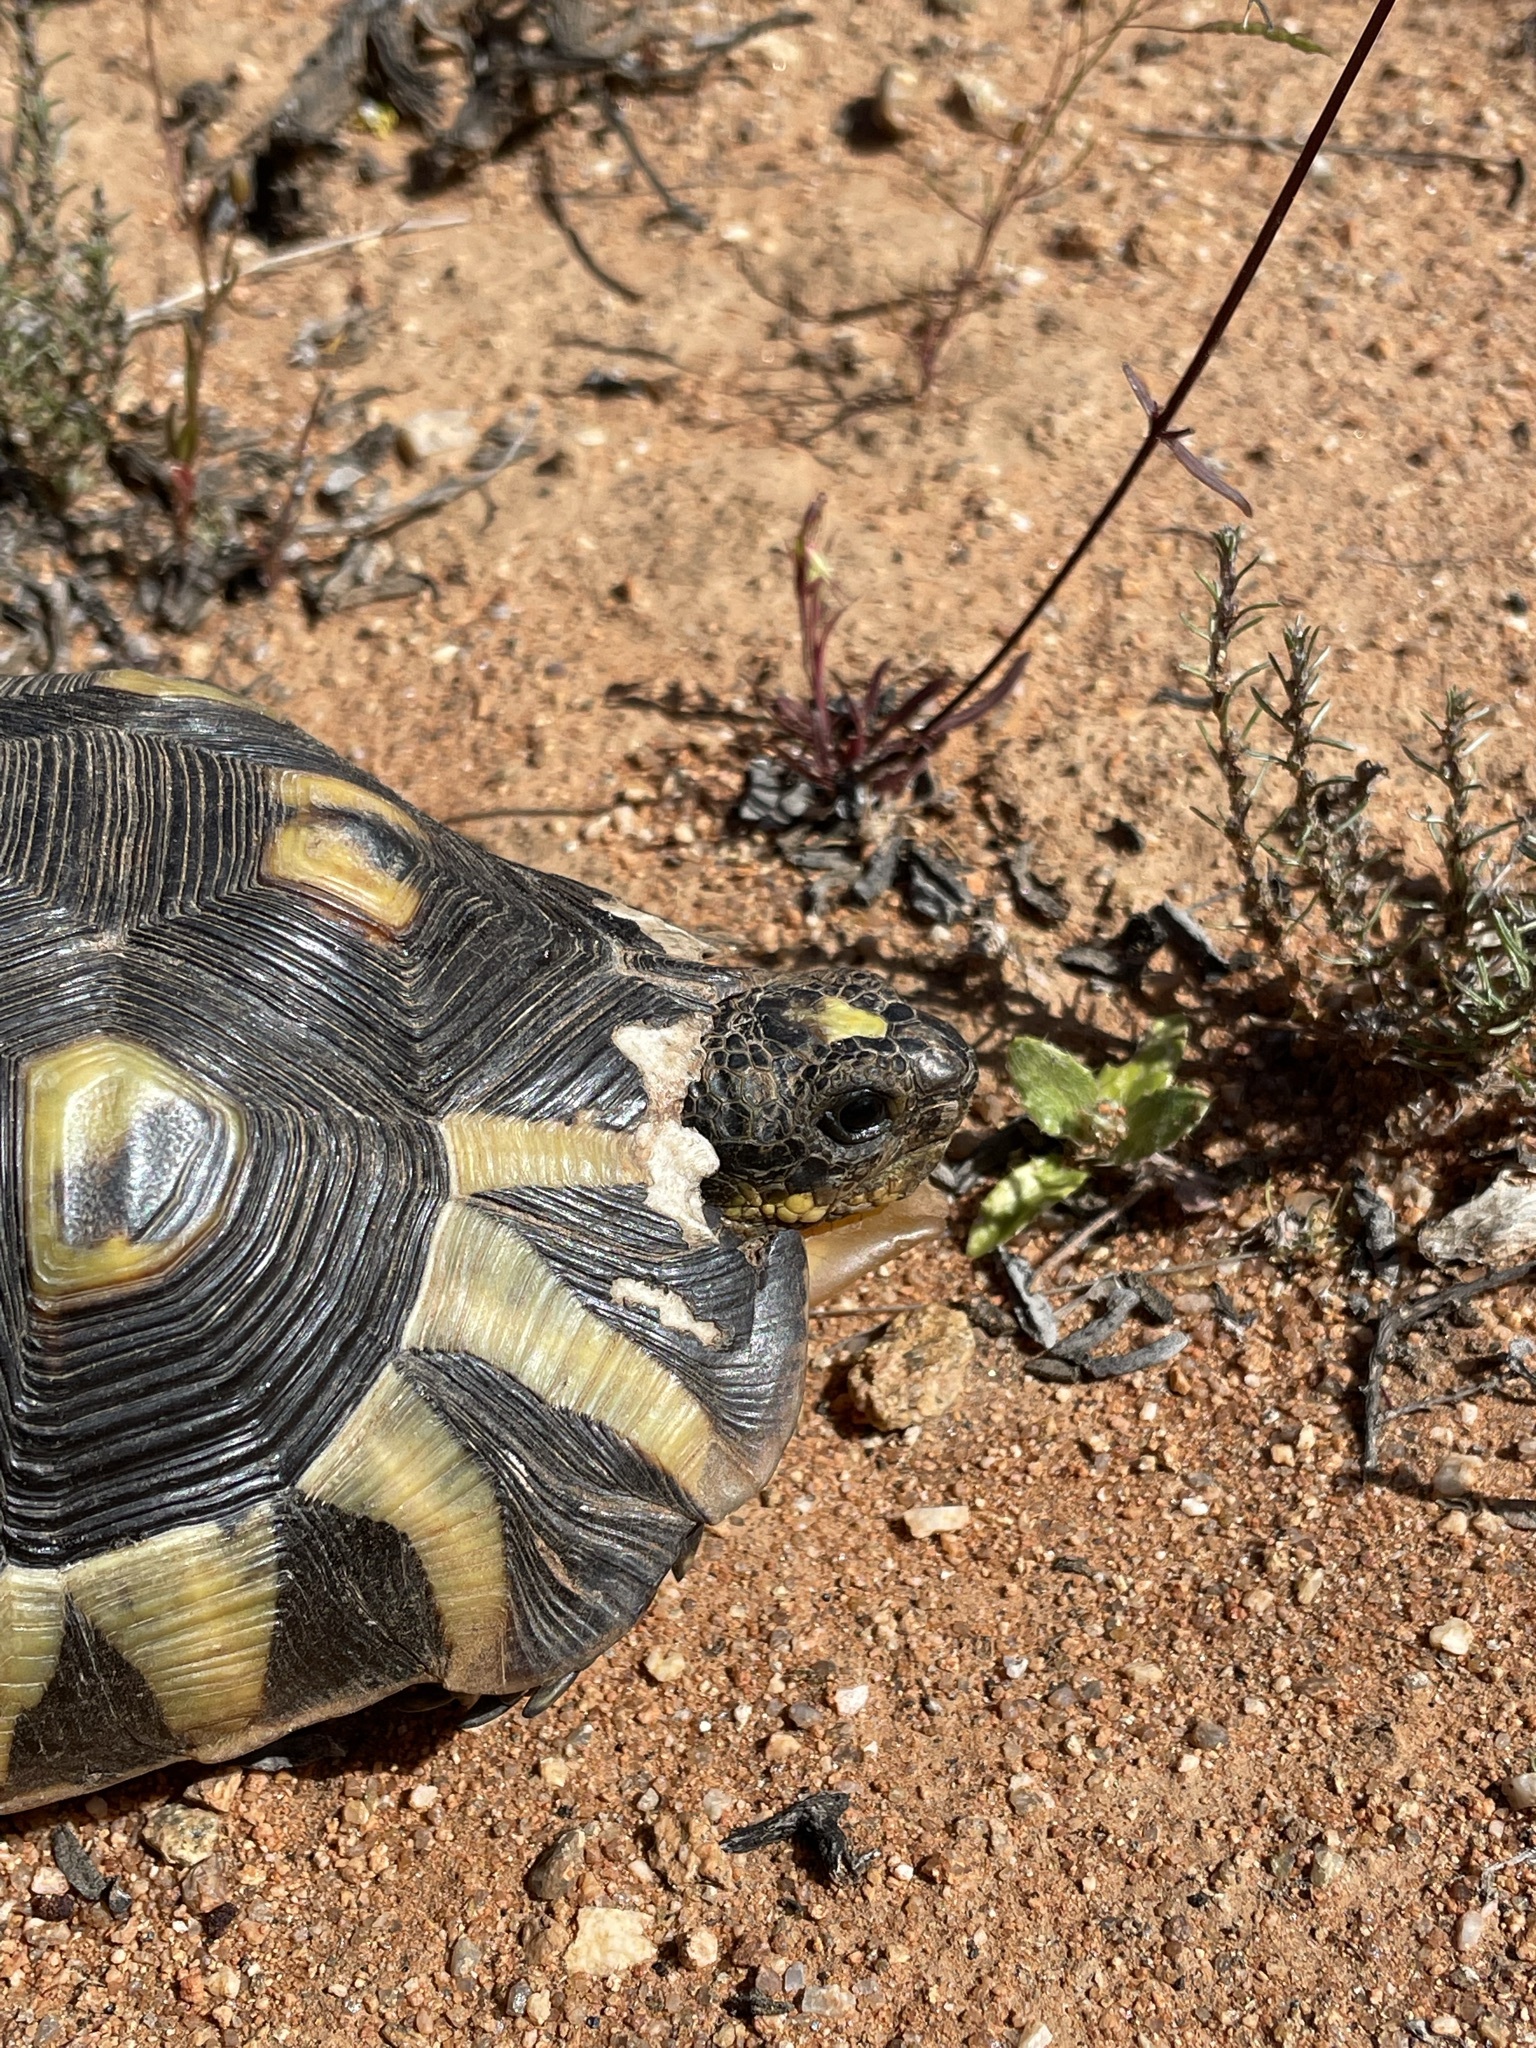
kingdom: Animalia
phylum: Chordata
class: Testudines
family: Testudinidae
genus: Chersina
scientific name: Chersina angulata
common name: South african bowsprit tortoise
